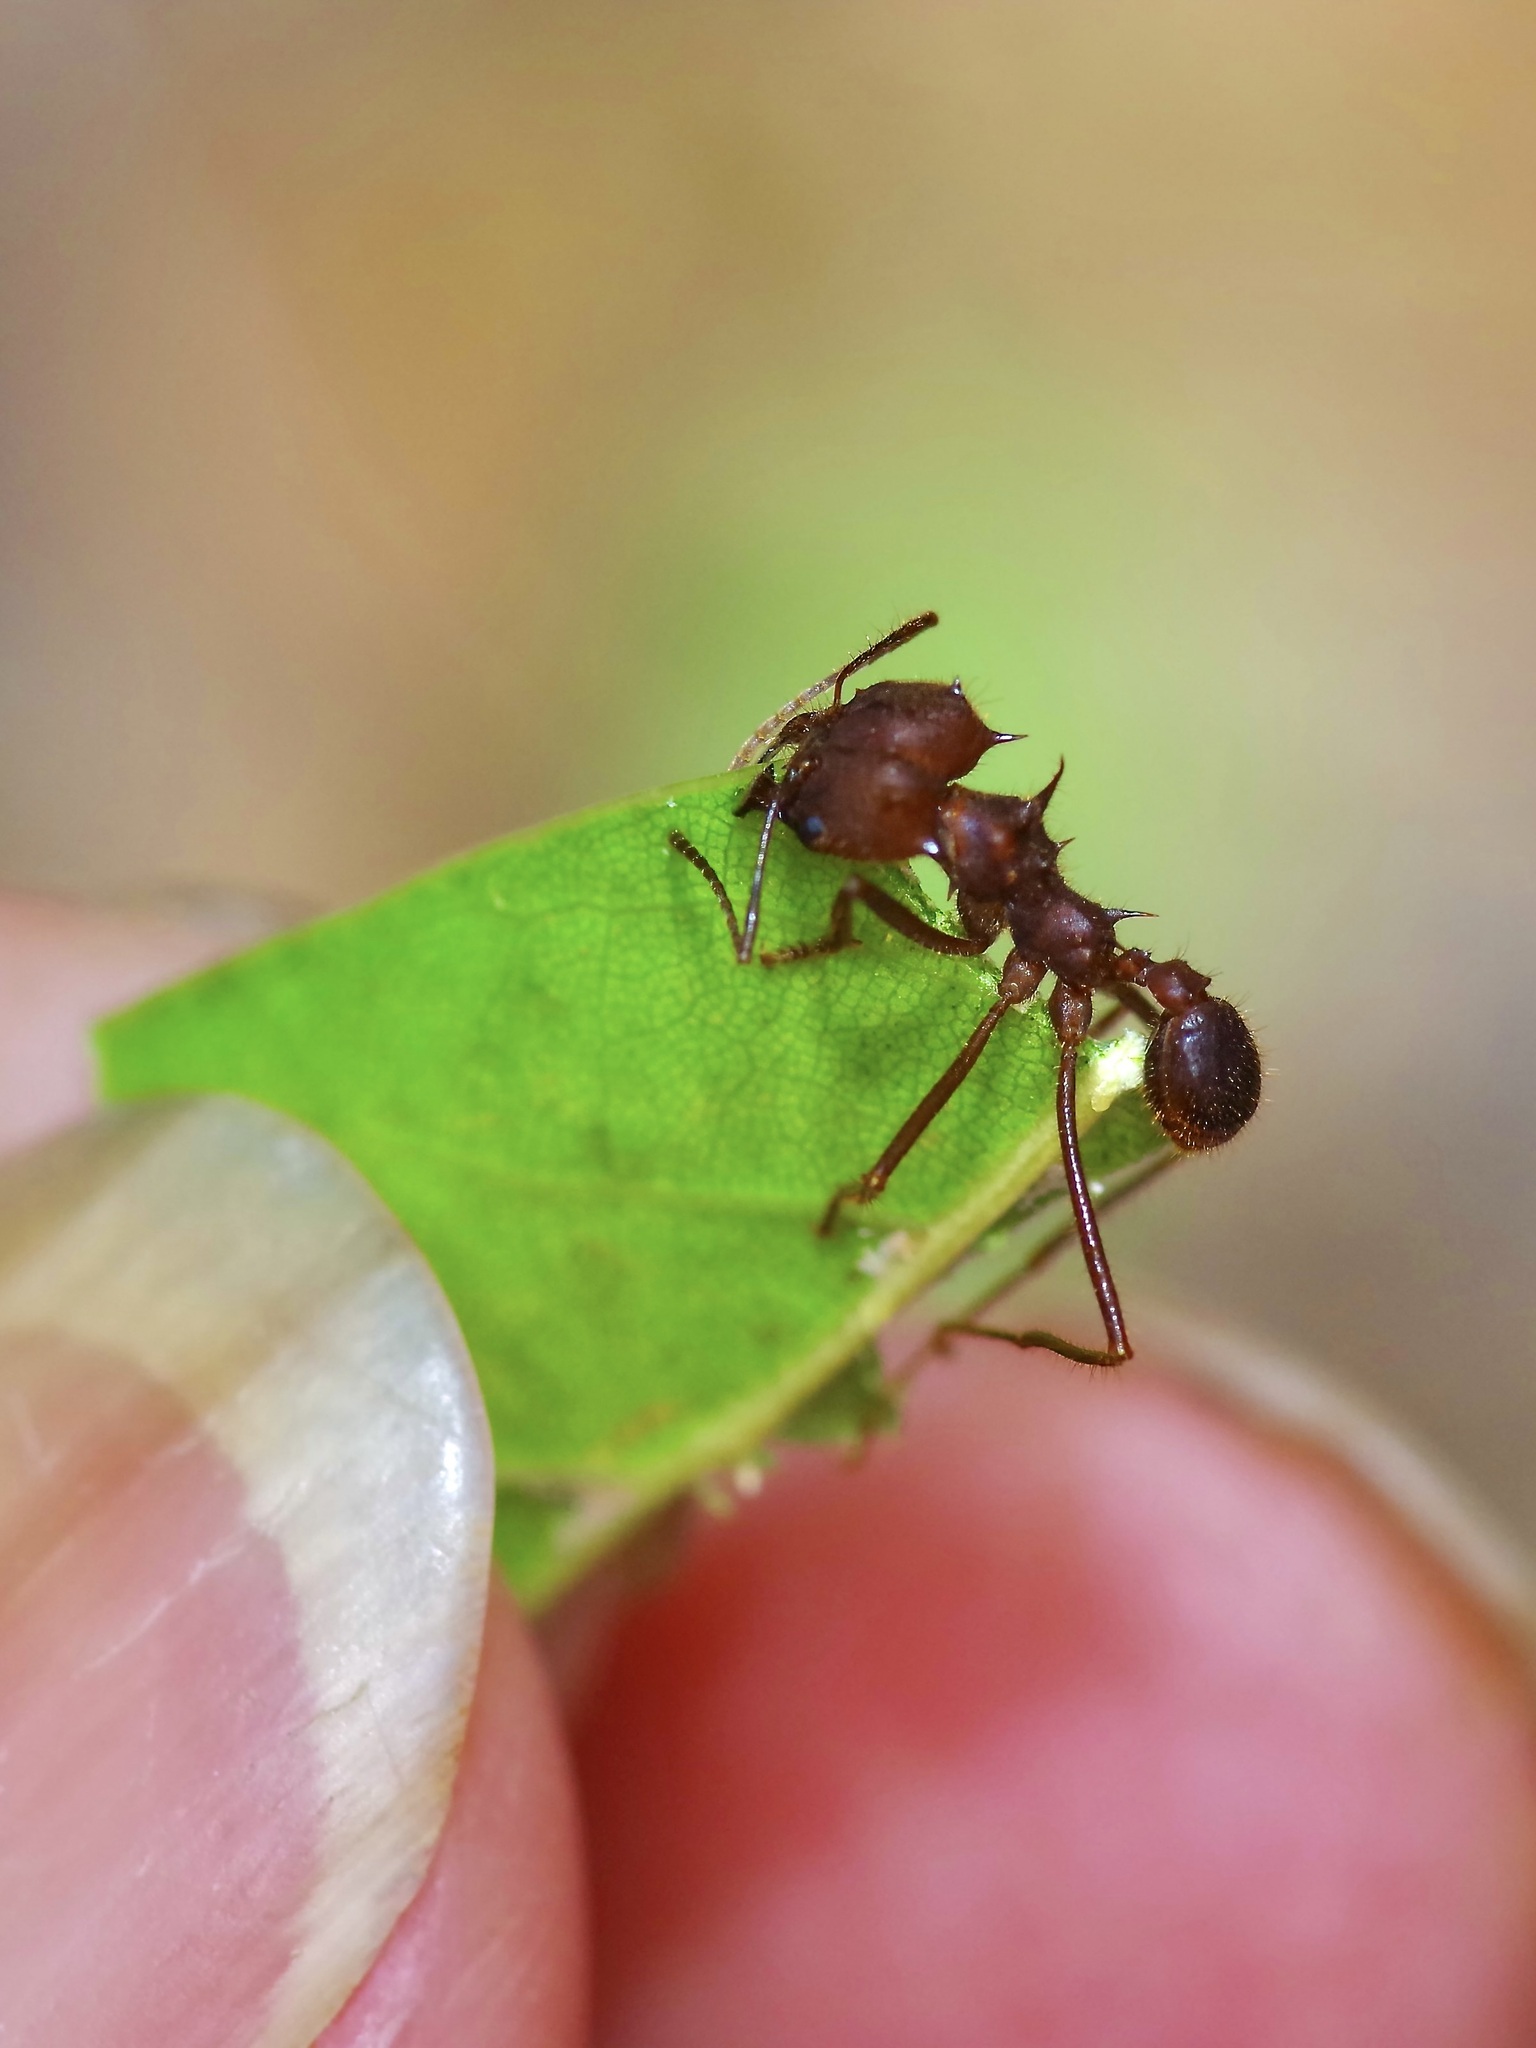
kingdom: Animalia
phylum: Arthropoda
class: Insecta
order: Hymenoptera
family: Formicidae
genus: Atta
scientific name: Atta texana
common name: Texas leafcutting ant
